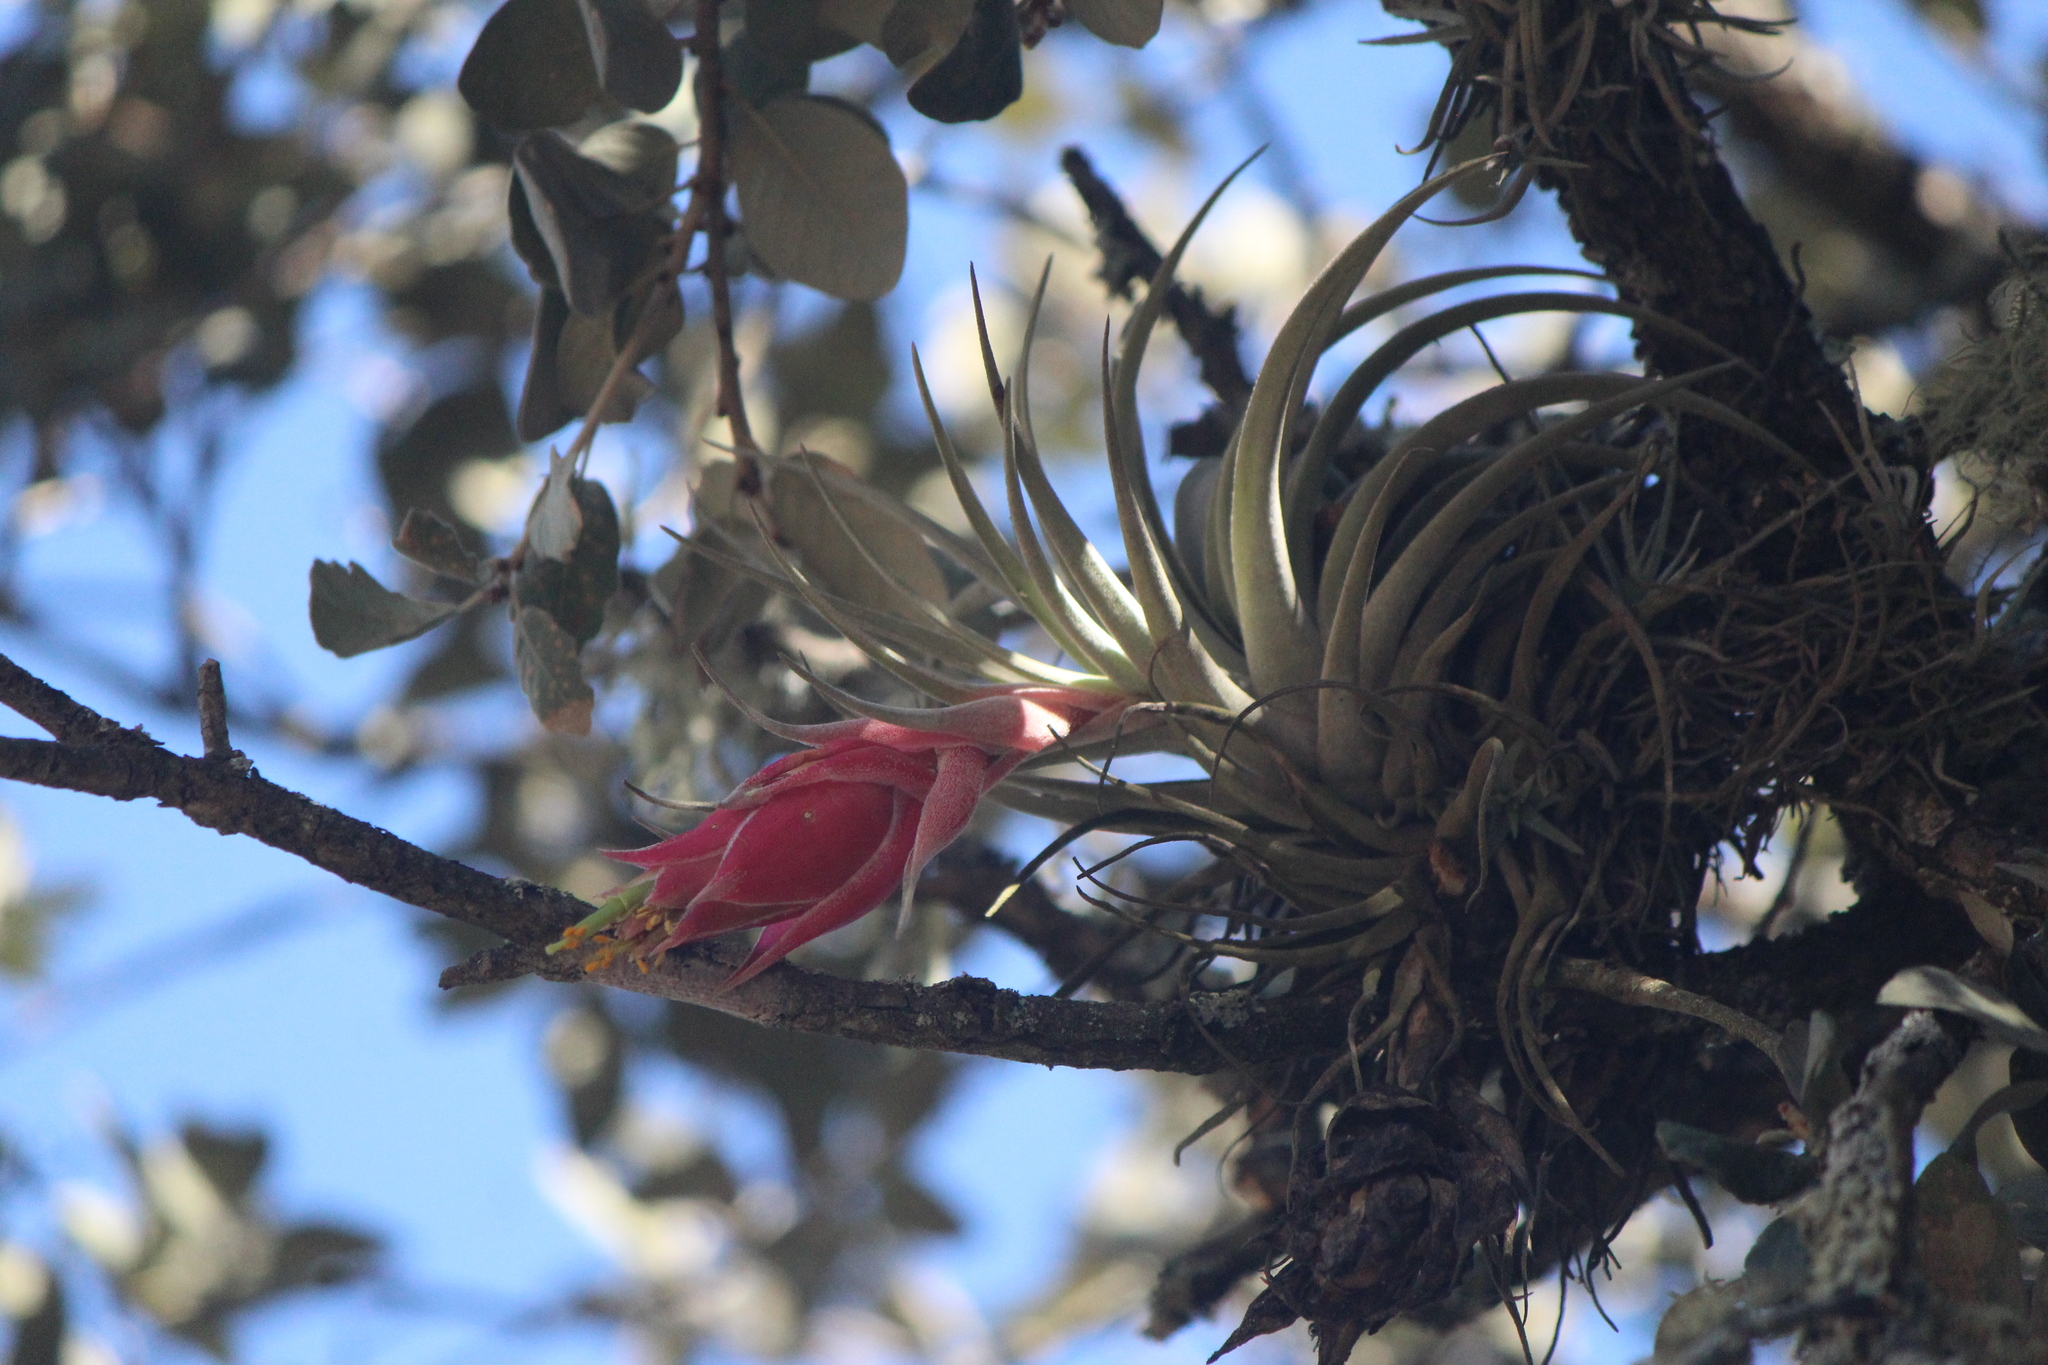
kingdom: Plantae
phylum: Tracheophyta
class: Liliopsida
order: Poales
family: Bromeliaceae
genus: Tillandsia
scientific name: Tillandsia erubescens
